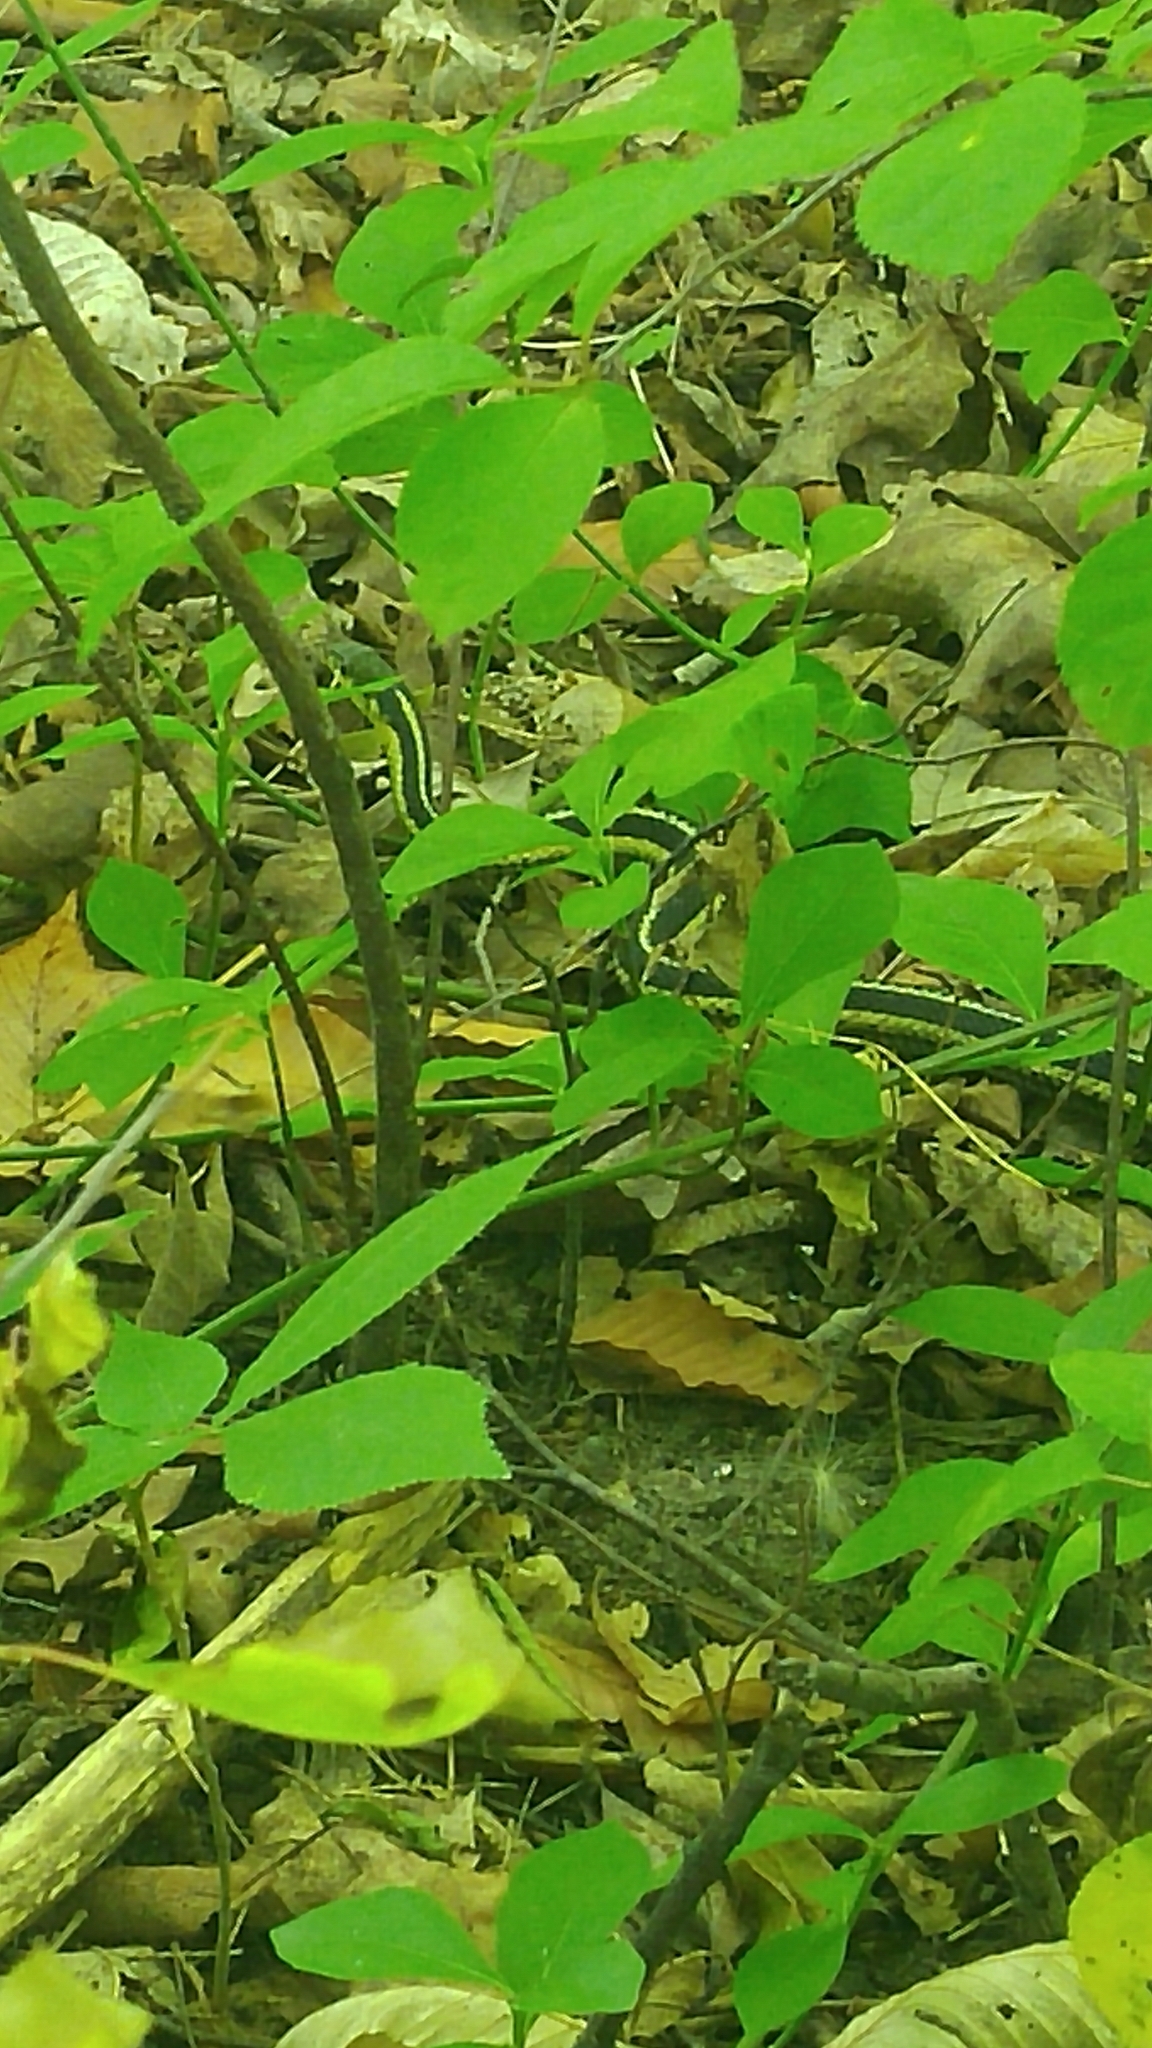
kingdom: Animalia
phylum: Chordata
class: Squamata
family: Colubridae
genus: Thamnophis
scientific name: Thamnophis sirtalis
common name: Common garter snake
